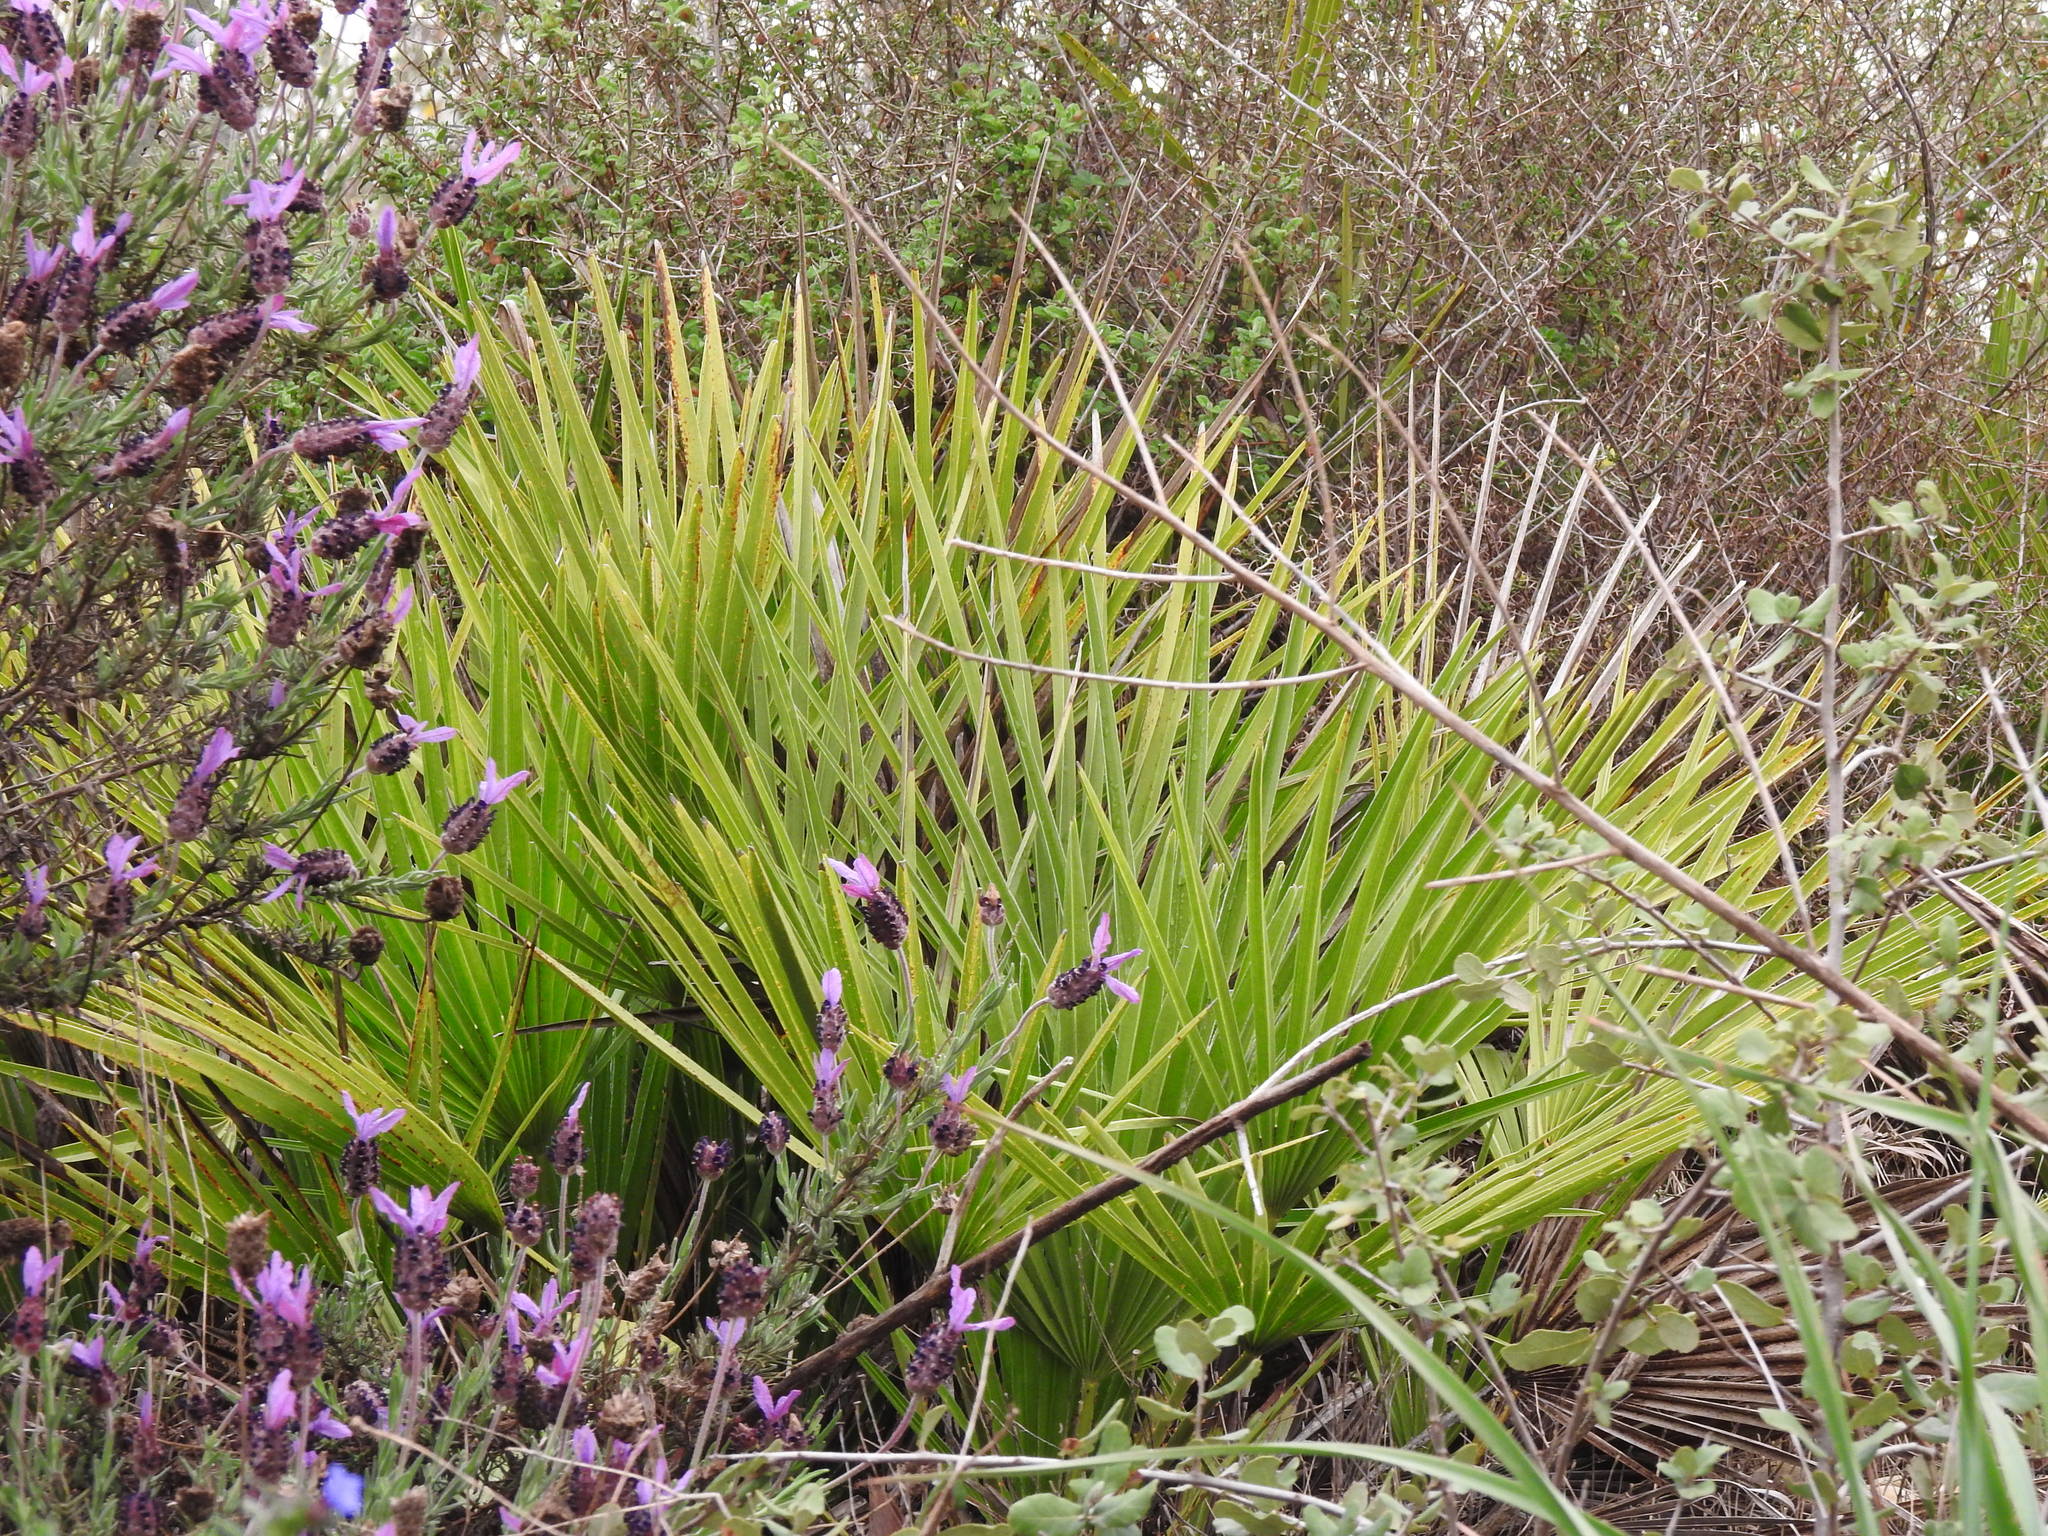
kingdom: Plantae
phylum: Tracheophyta
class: Liliopsida
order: Arecales
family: Arecaceae
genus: Chamaerops
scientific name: Chamaerops humilis
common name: Dwarf fan palm
